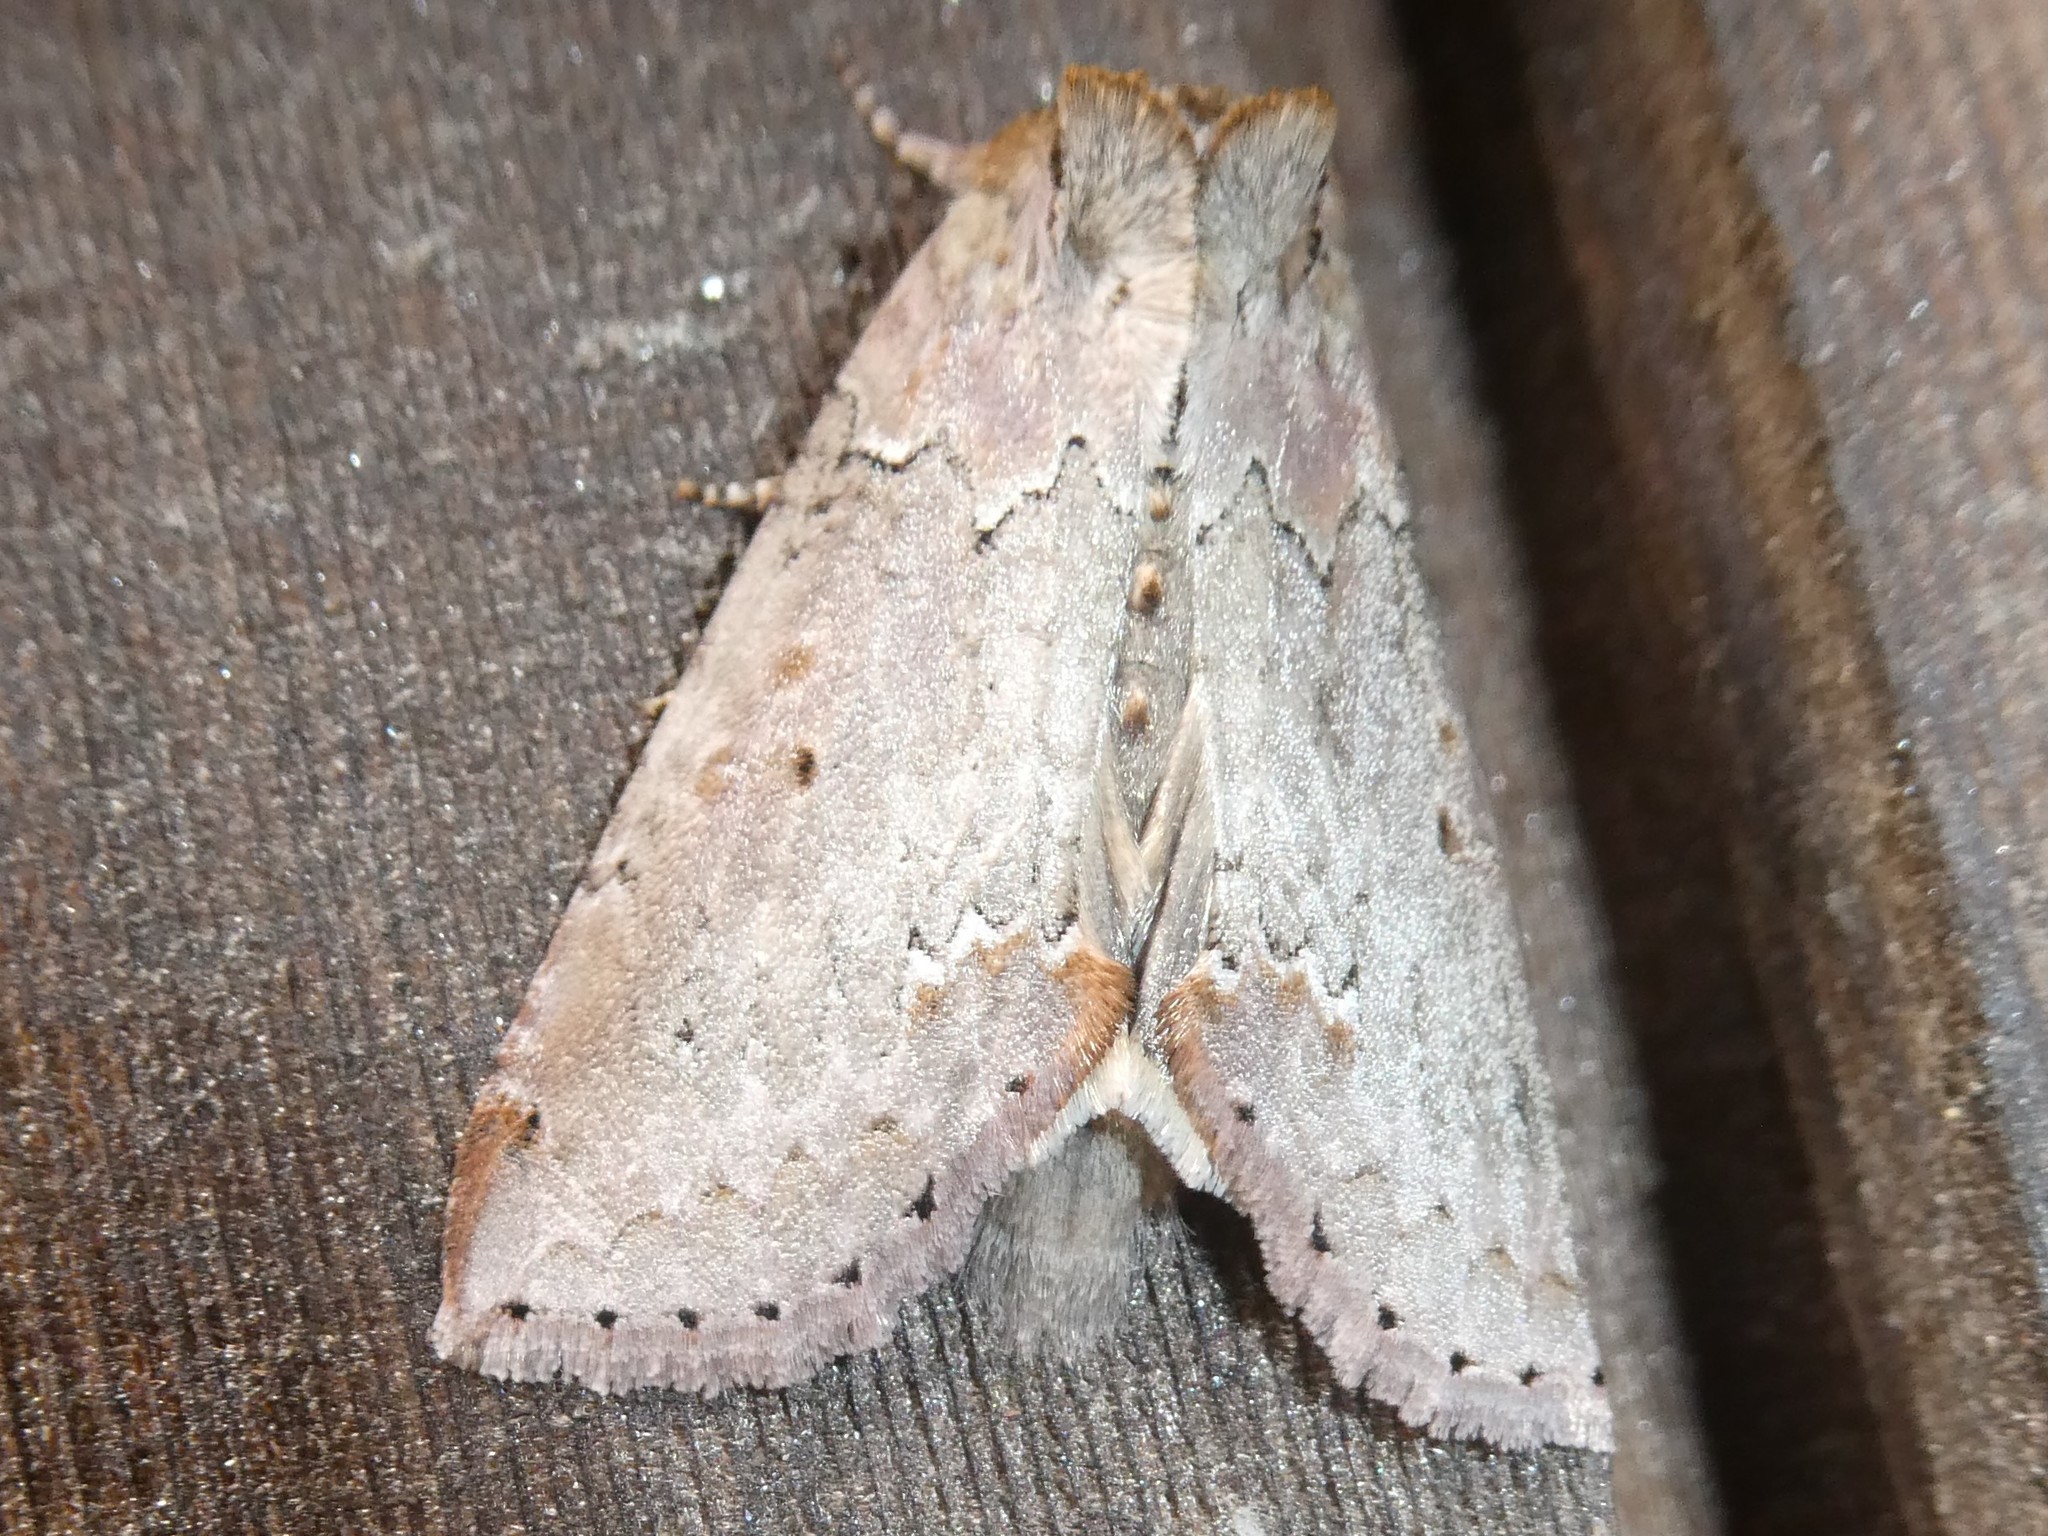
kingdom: Animalia
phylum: Arthropoda
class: Insecta
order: Lepidoptera
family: Drepanidae
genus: Pseudothyatira
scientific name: Pseudothyatira cymatophoroides
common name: Tufted thyatirid moth
